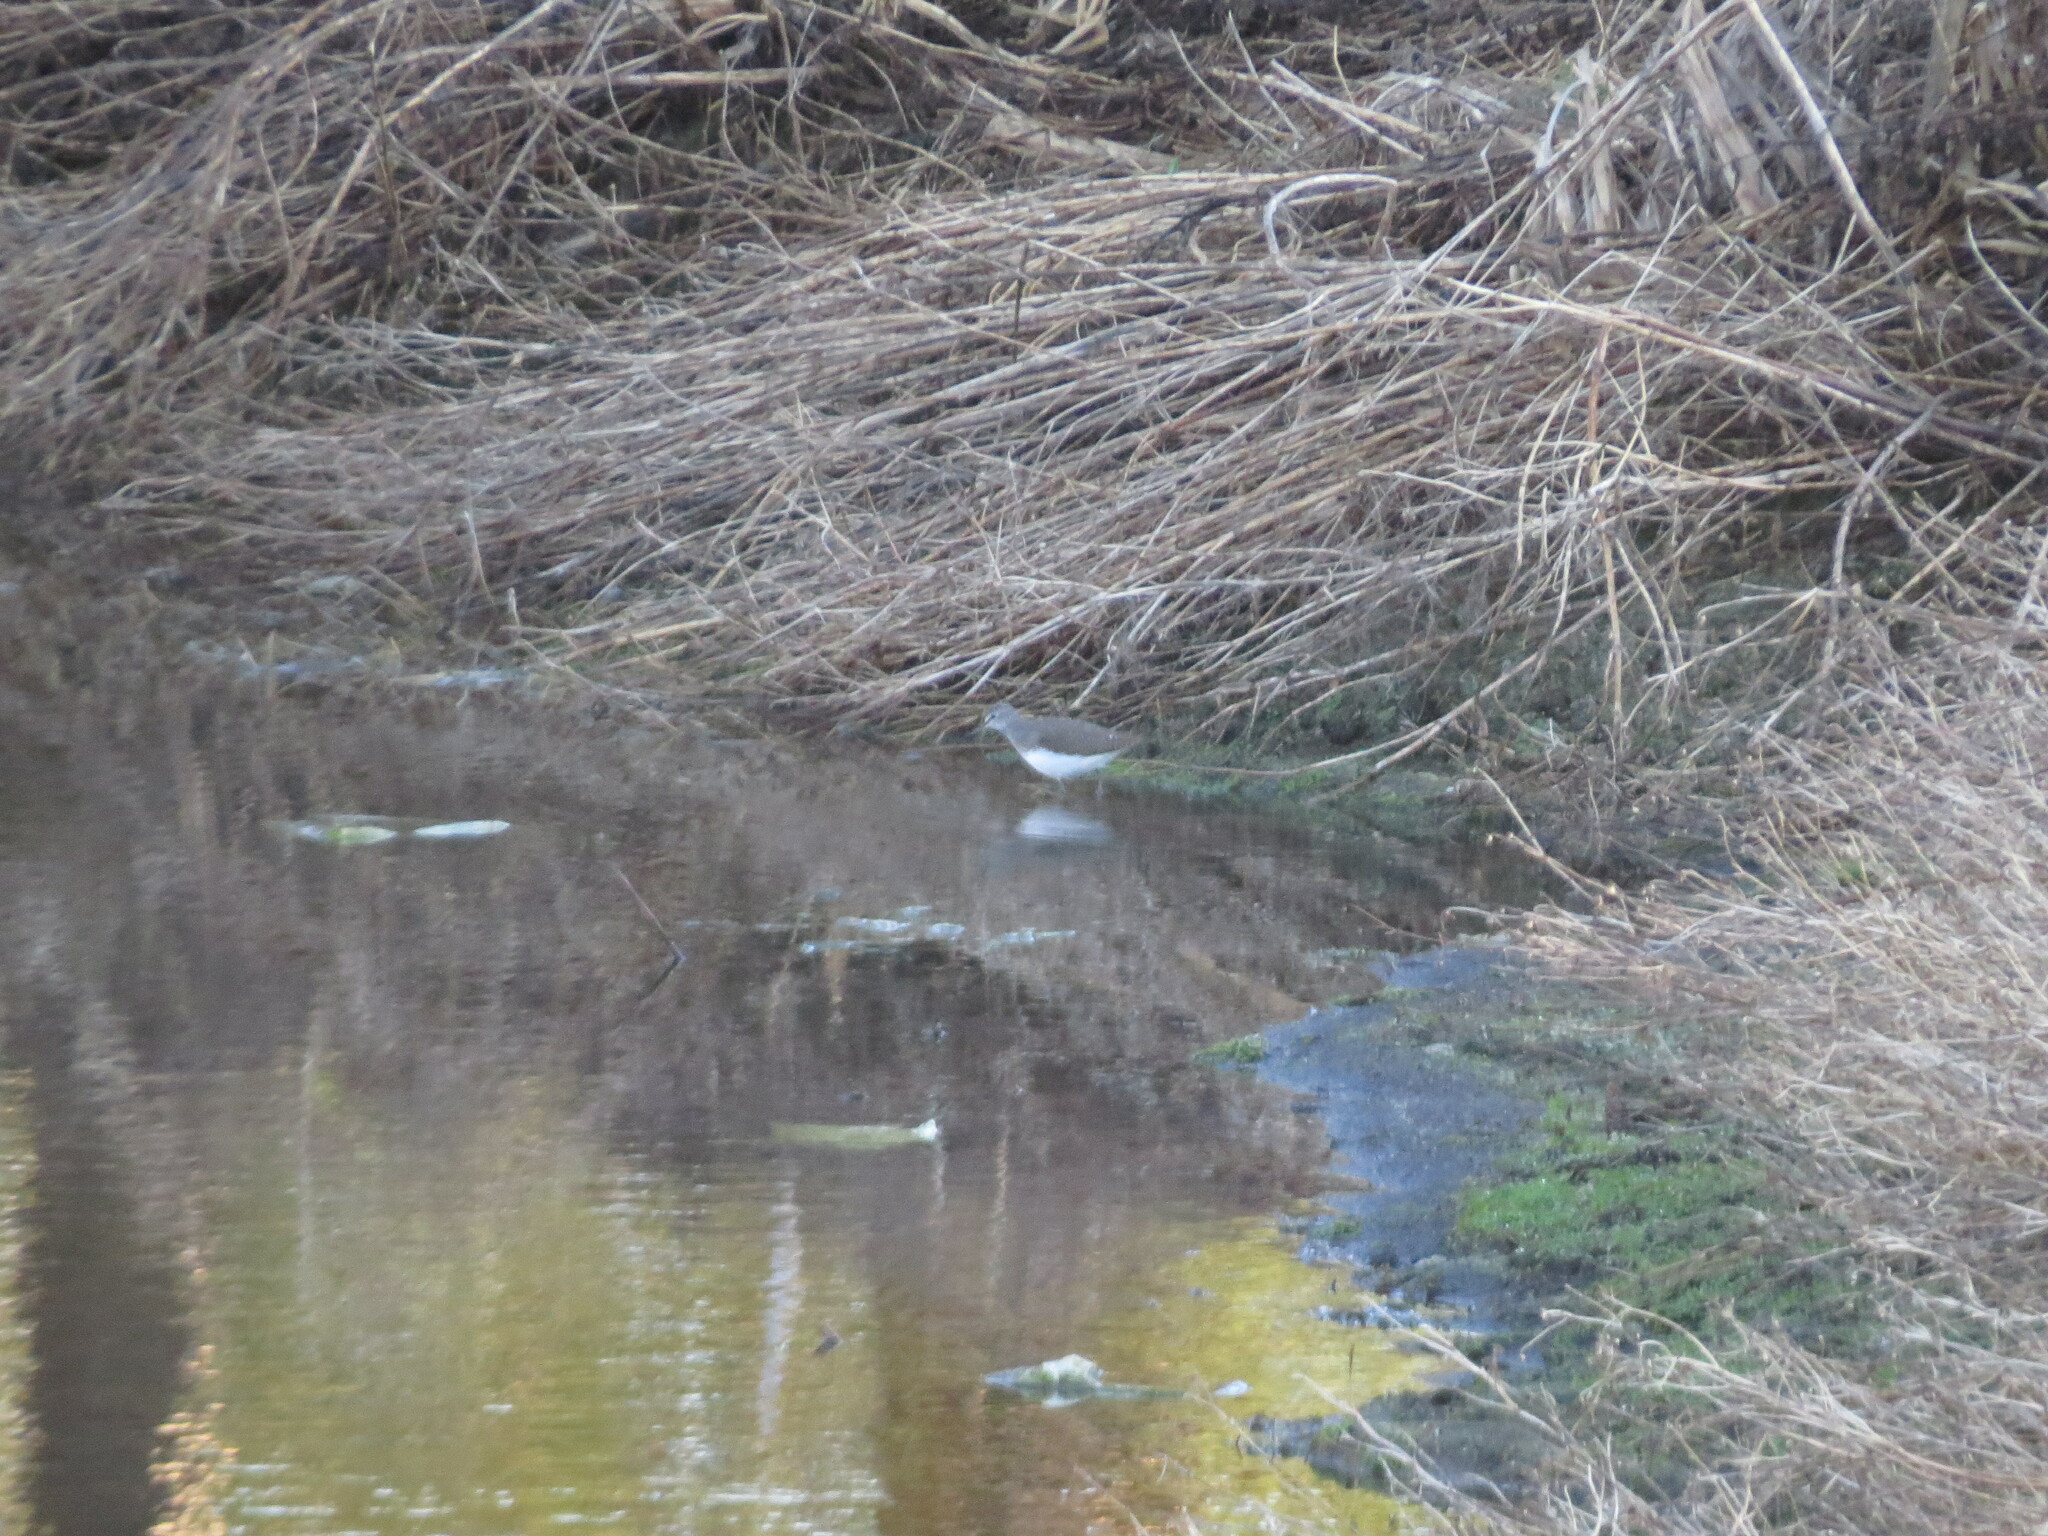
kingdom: Animalia
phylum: Chordata
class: Aves
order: Charadriiformes
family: Scolopacidae
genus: Tringa
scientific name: Tringa ochropus
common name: Green sandpiper
